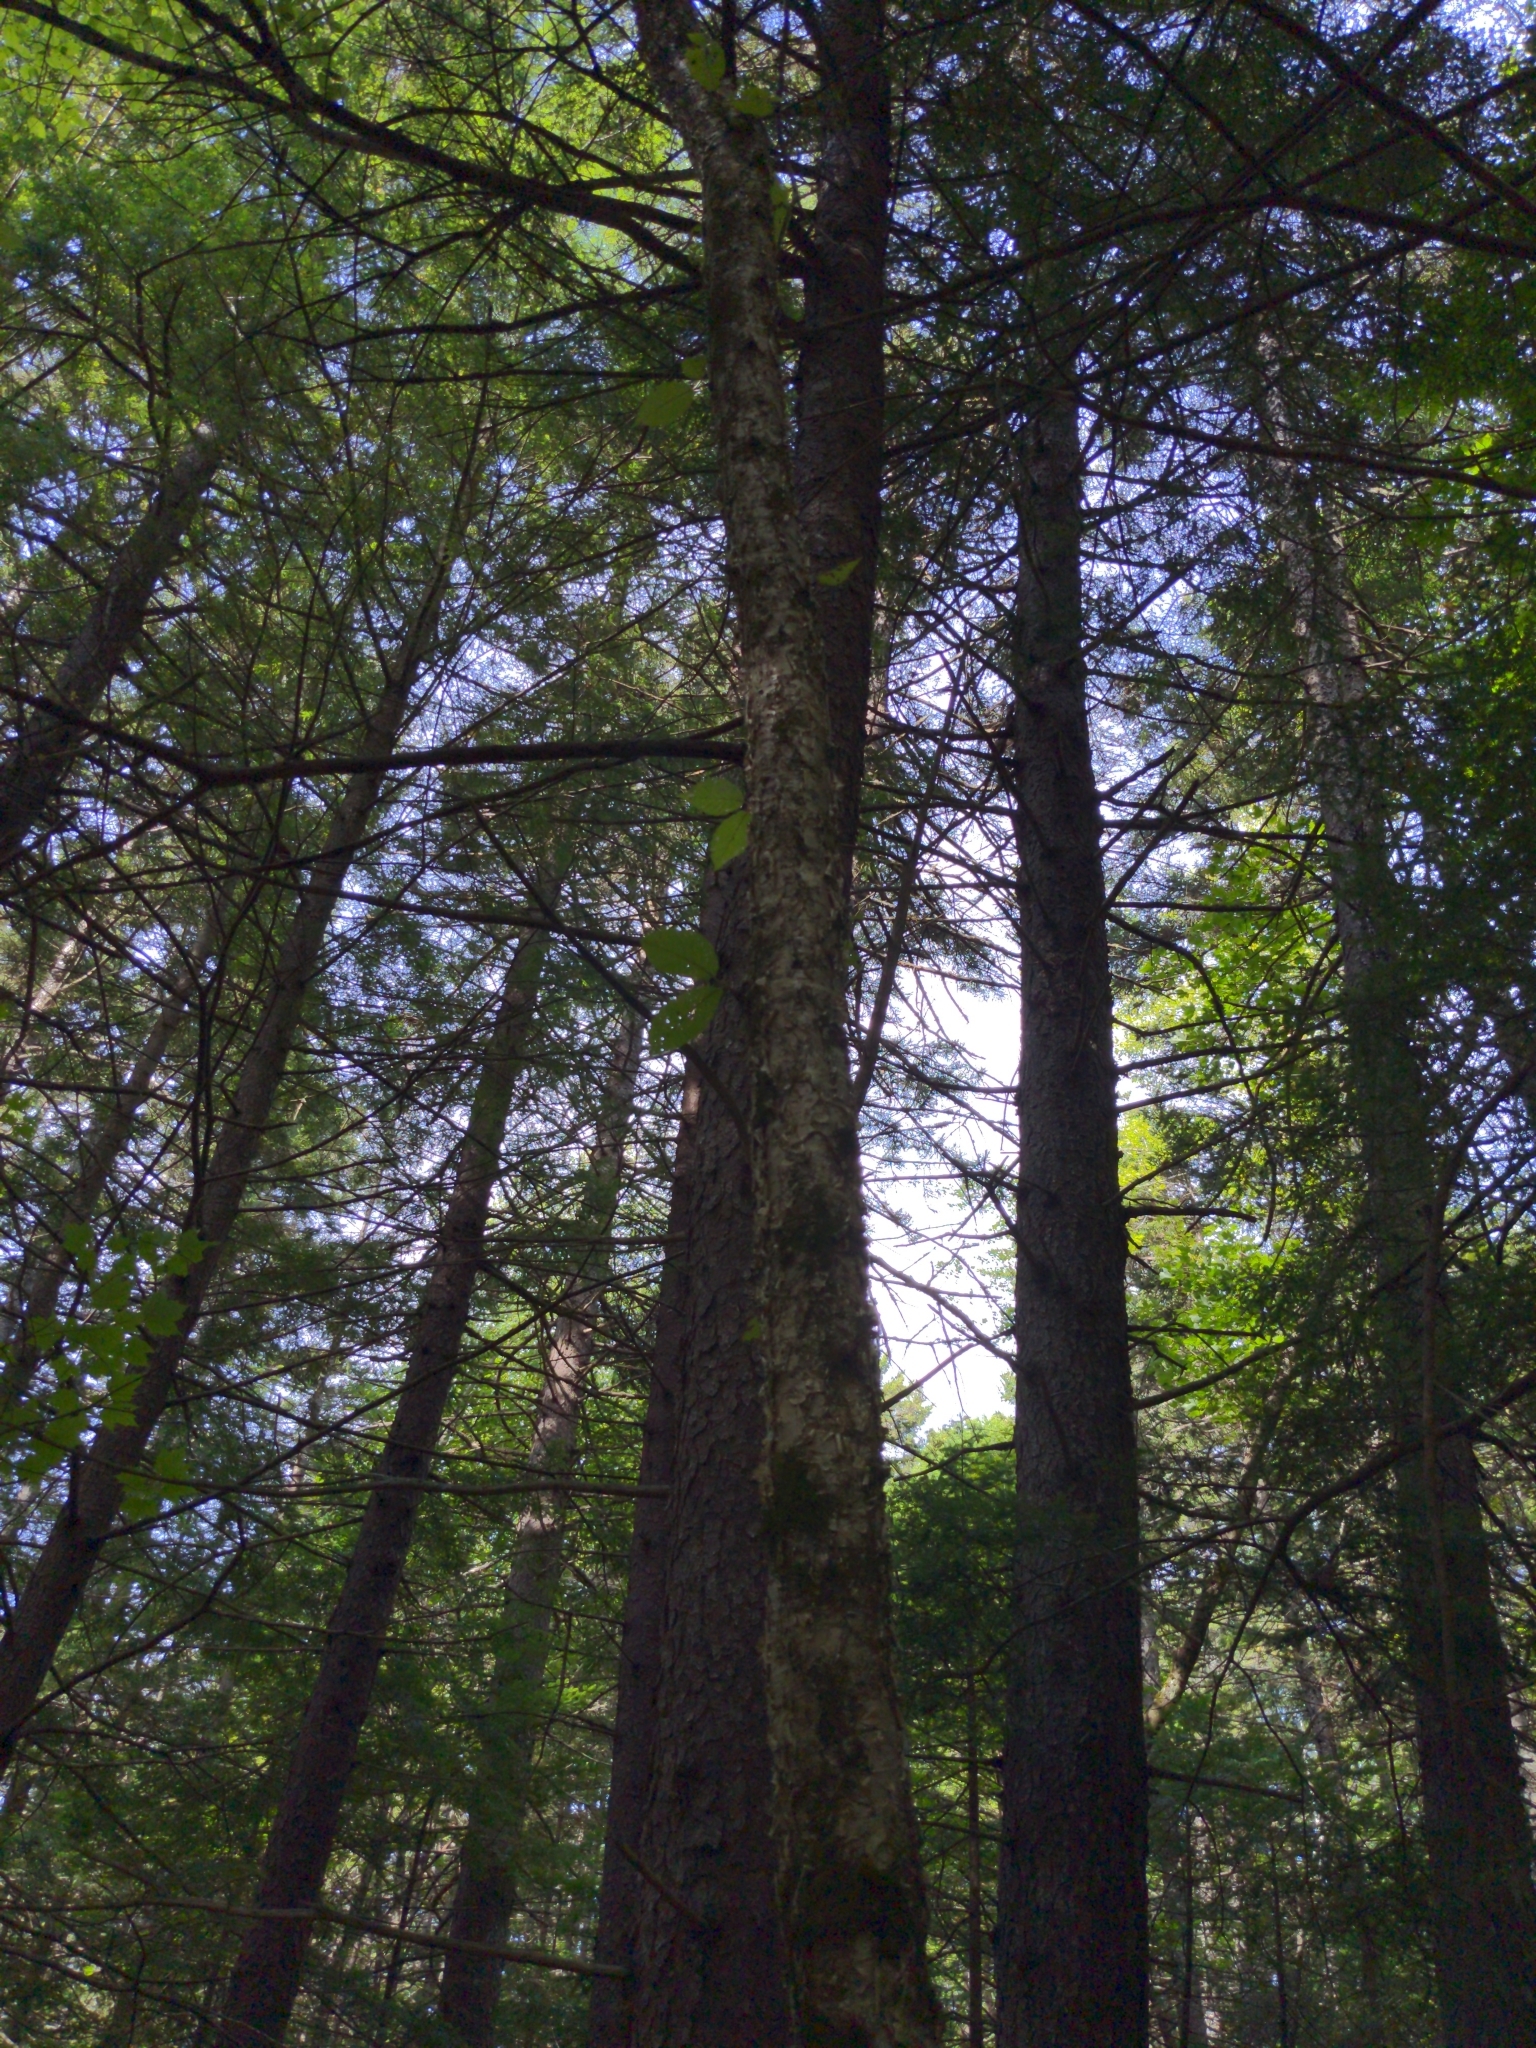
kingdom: Plantae
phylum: Tracheophyta
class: Magnoliopsida
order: Fagales
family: Betulaceae
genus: Betula
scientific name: Betula alleghaniensis
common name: Yellow birch
